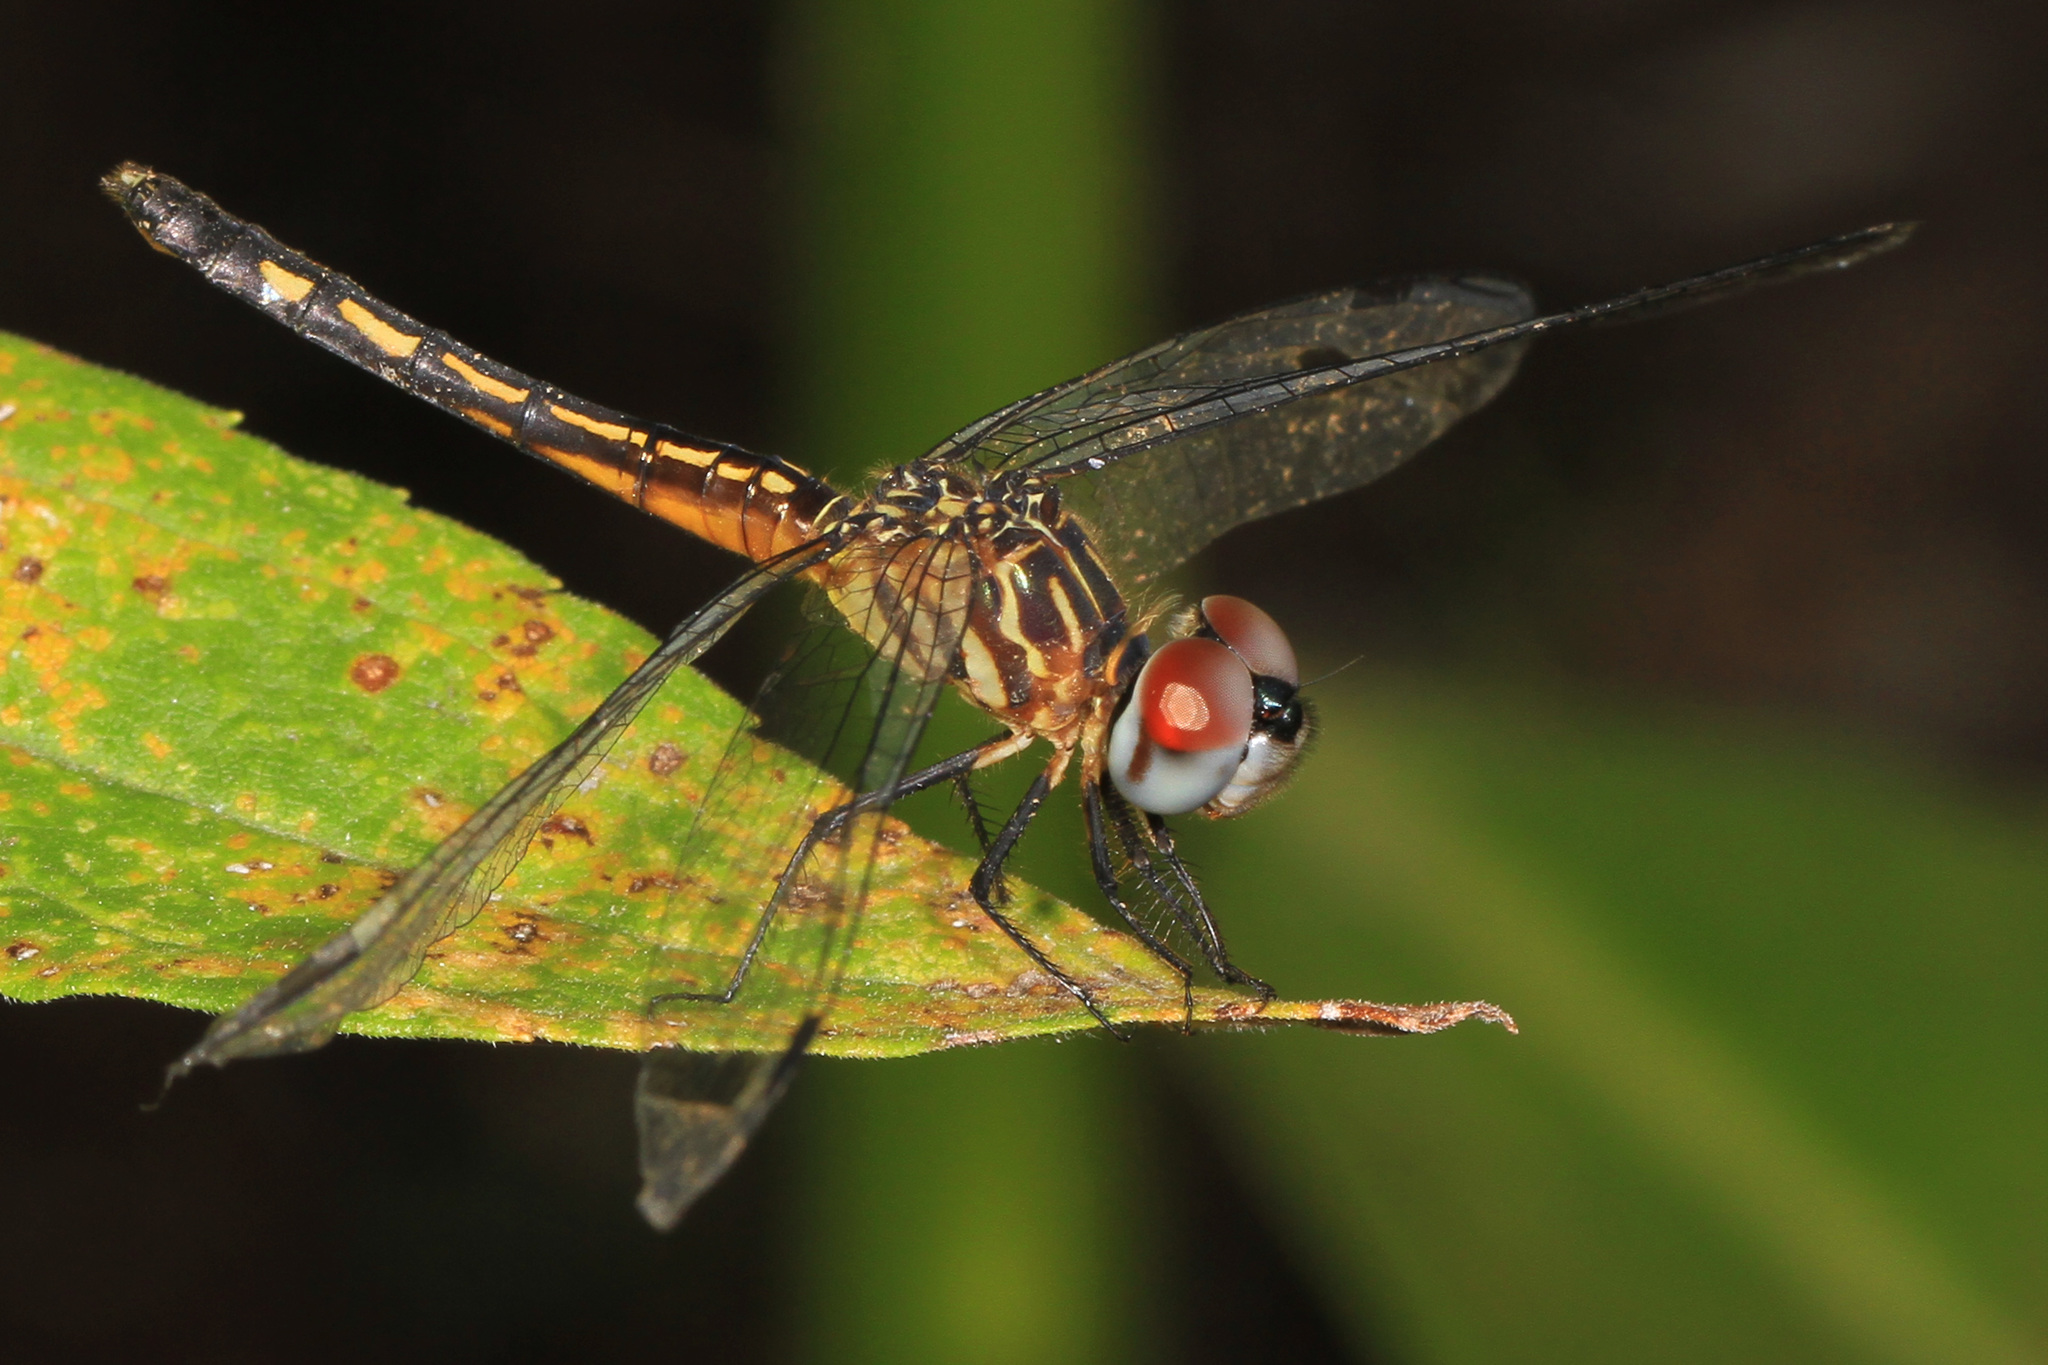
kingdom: Animalia
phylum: Arthropoda
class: Insecta
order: Odonata
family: Libellulidae
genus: Pachydiplax
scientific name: Pachydiplax longipennis
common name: Blue dasher
